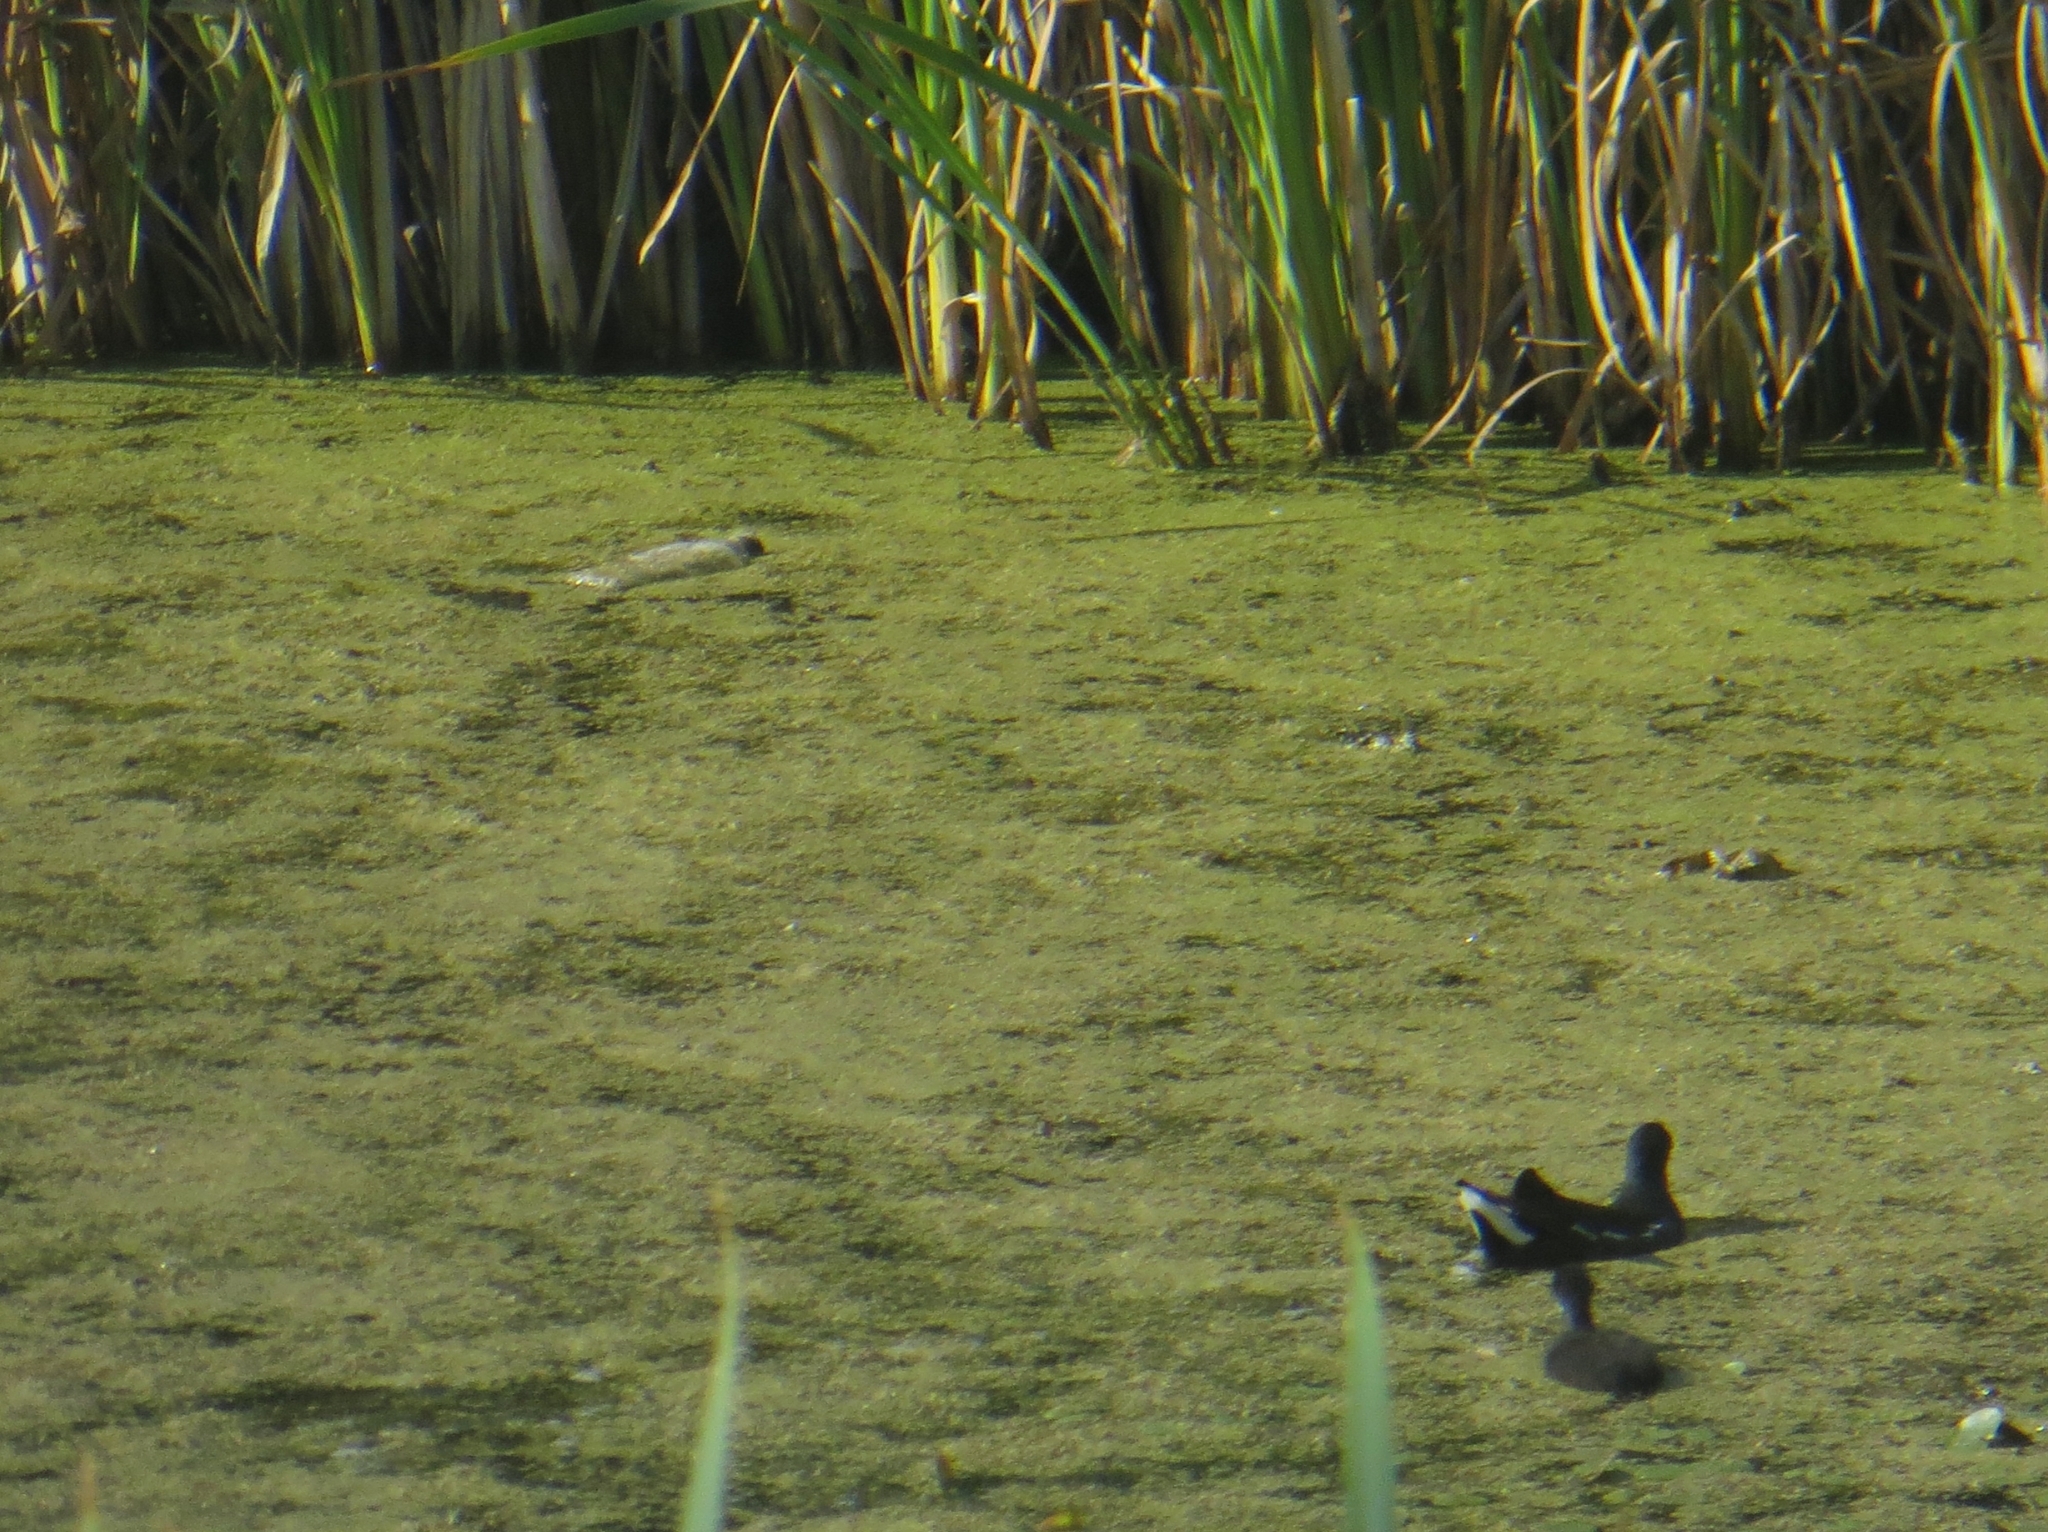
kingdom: Animalia
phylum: Chordata
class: Aves
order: Gruiformes
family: Rallidae
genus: Gallinula
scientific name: Gallinula chloropus
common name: Common moorhen
